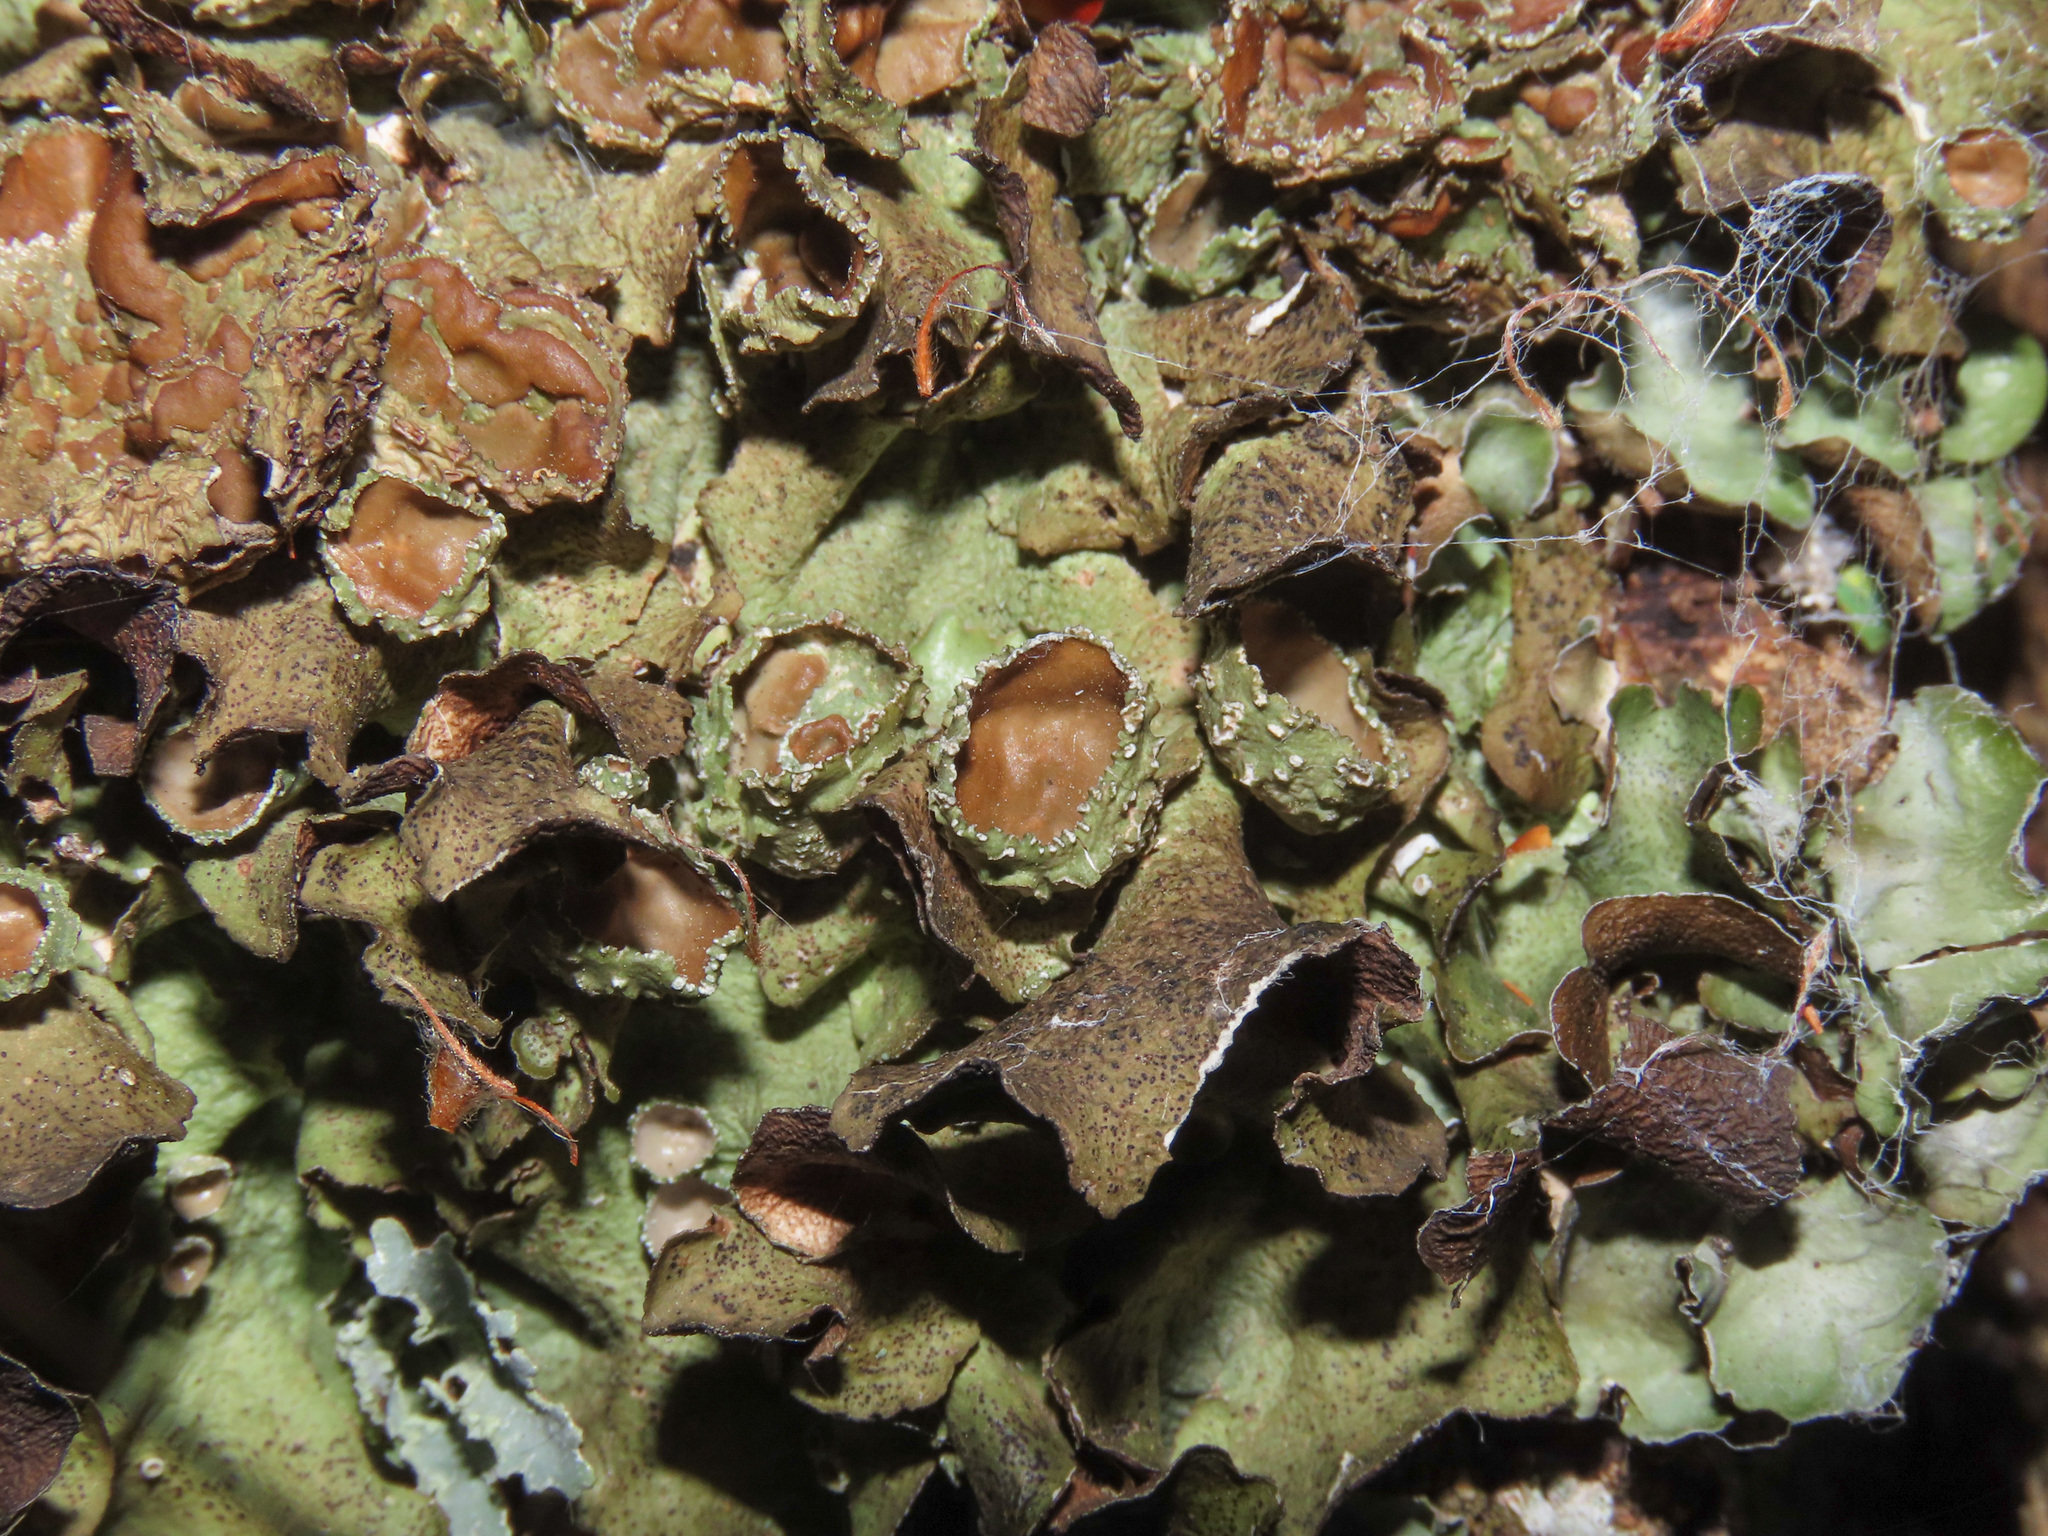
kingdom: Fungi
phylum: Ascomycota
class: Lecanoromycetes
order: Lecanorales
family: Parmeliaceae
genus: Pleurosticta
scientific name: Pleurosticta acetabulum
